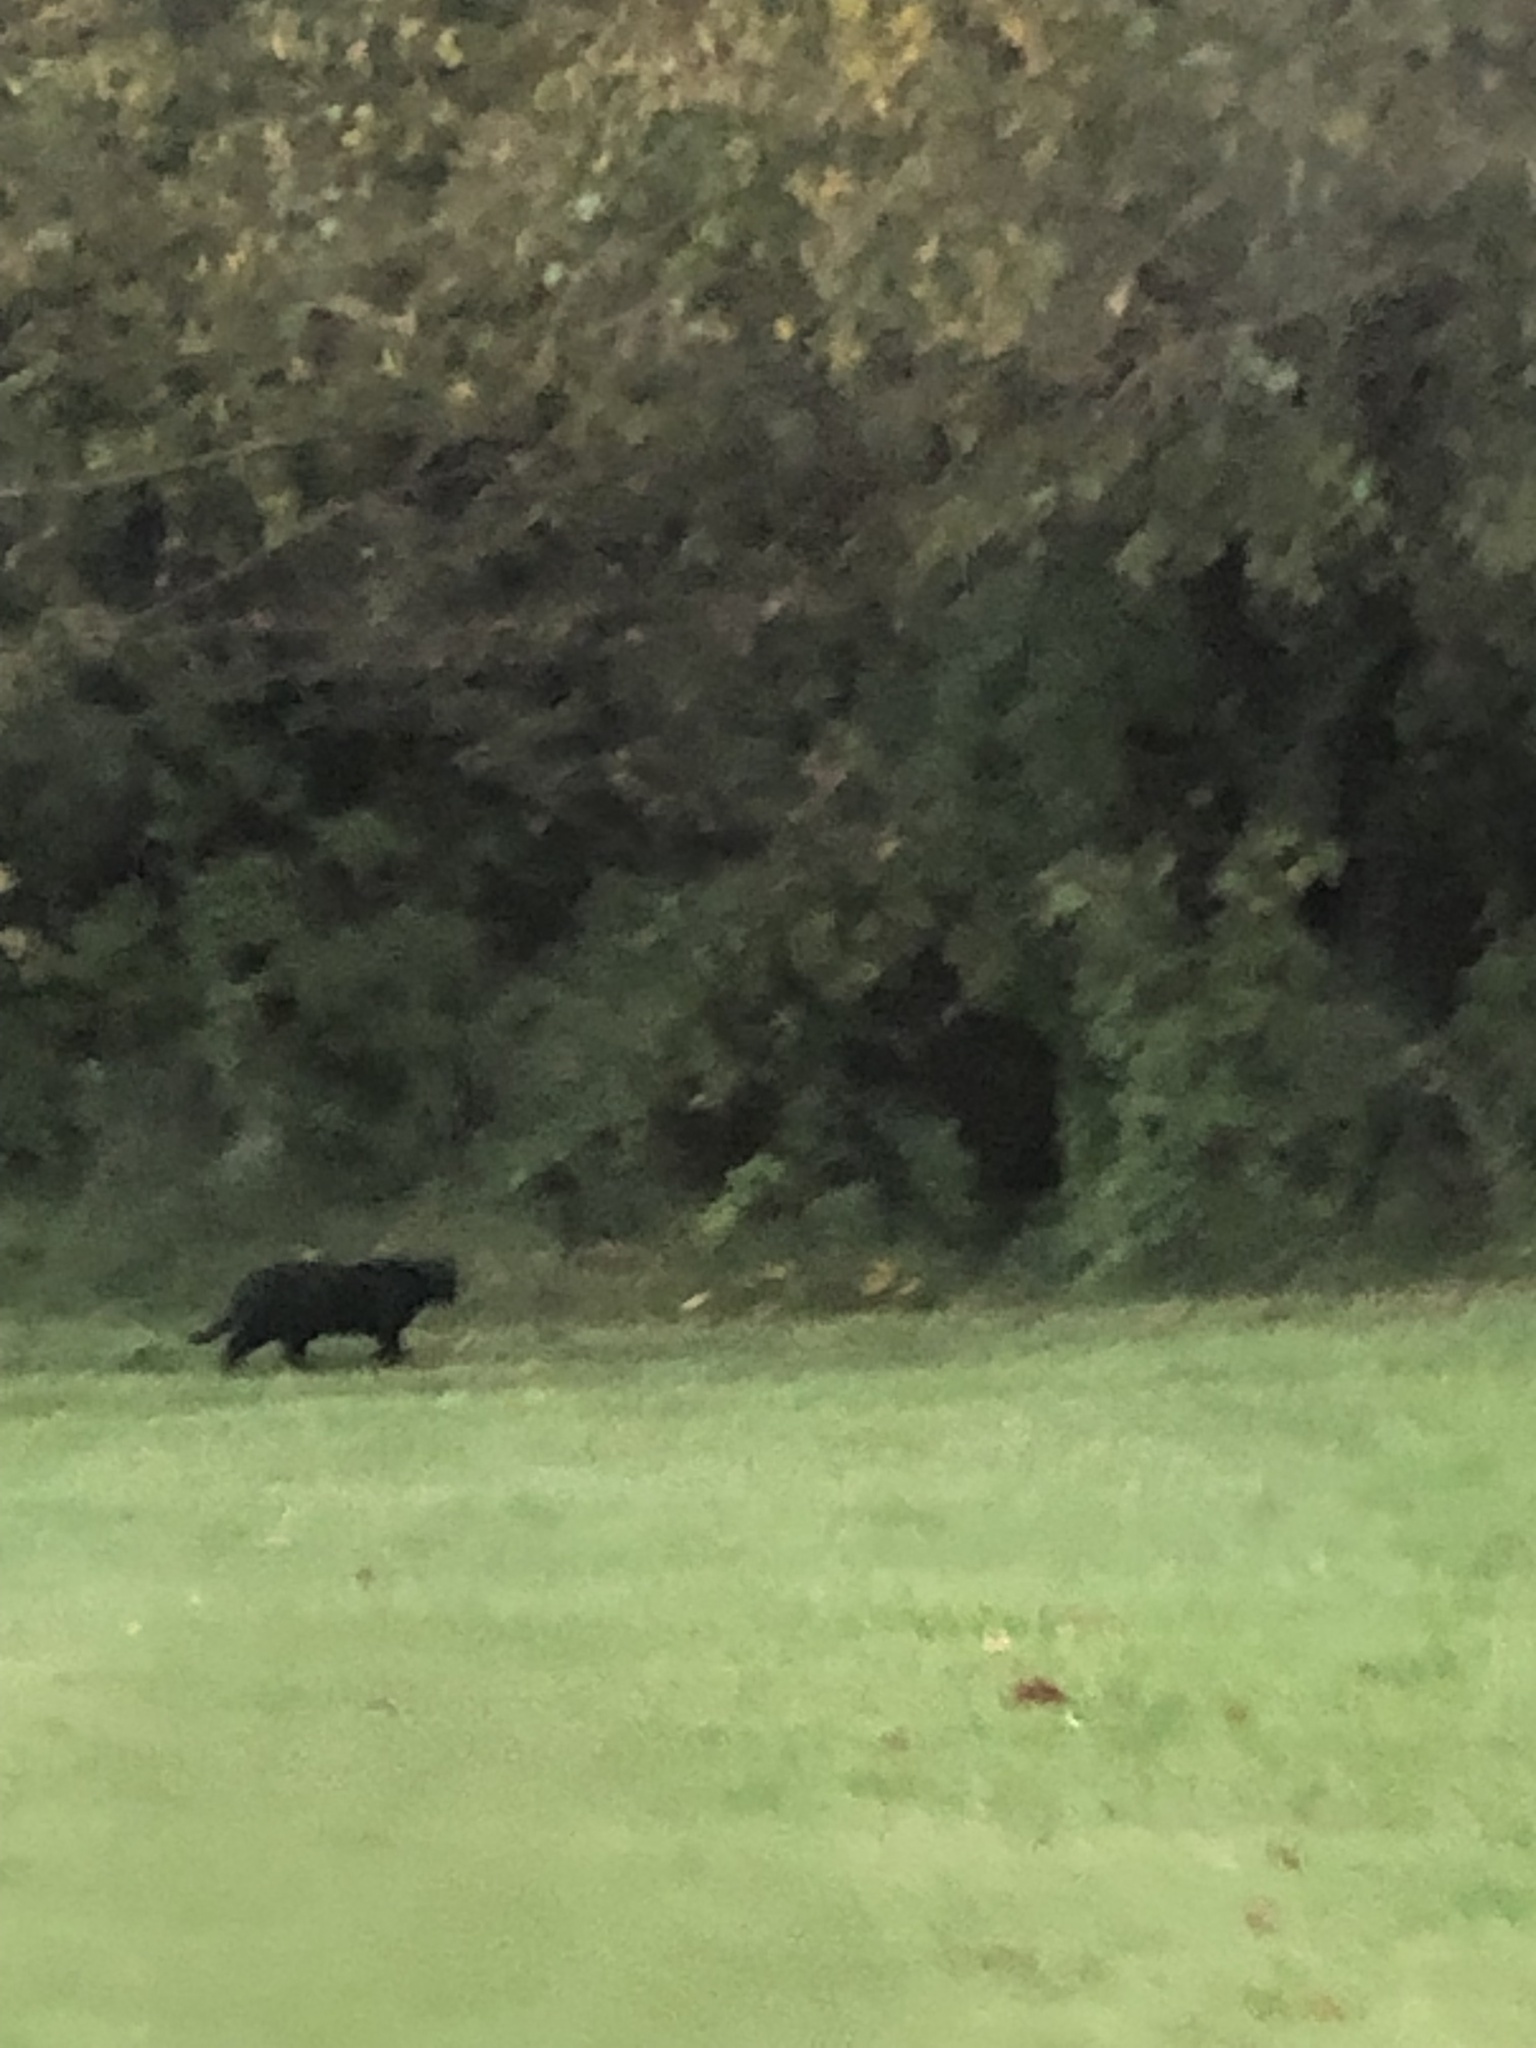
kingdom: Animalia
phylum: Chordata
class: Mammalia
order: Carnivora
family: Felidae
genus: Felis
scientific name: Felis catus
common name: Domestic cat
